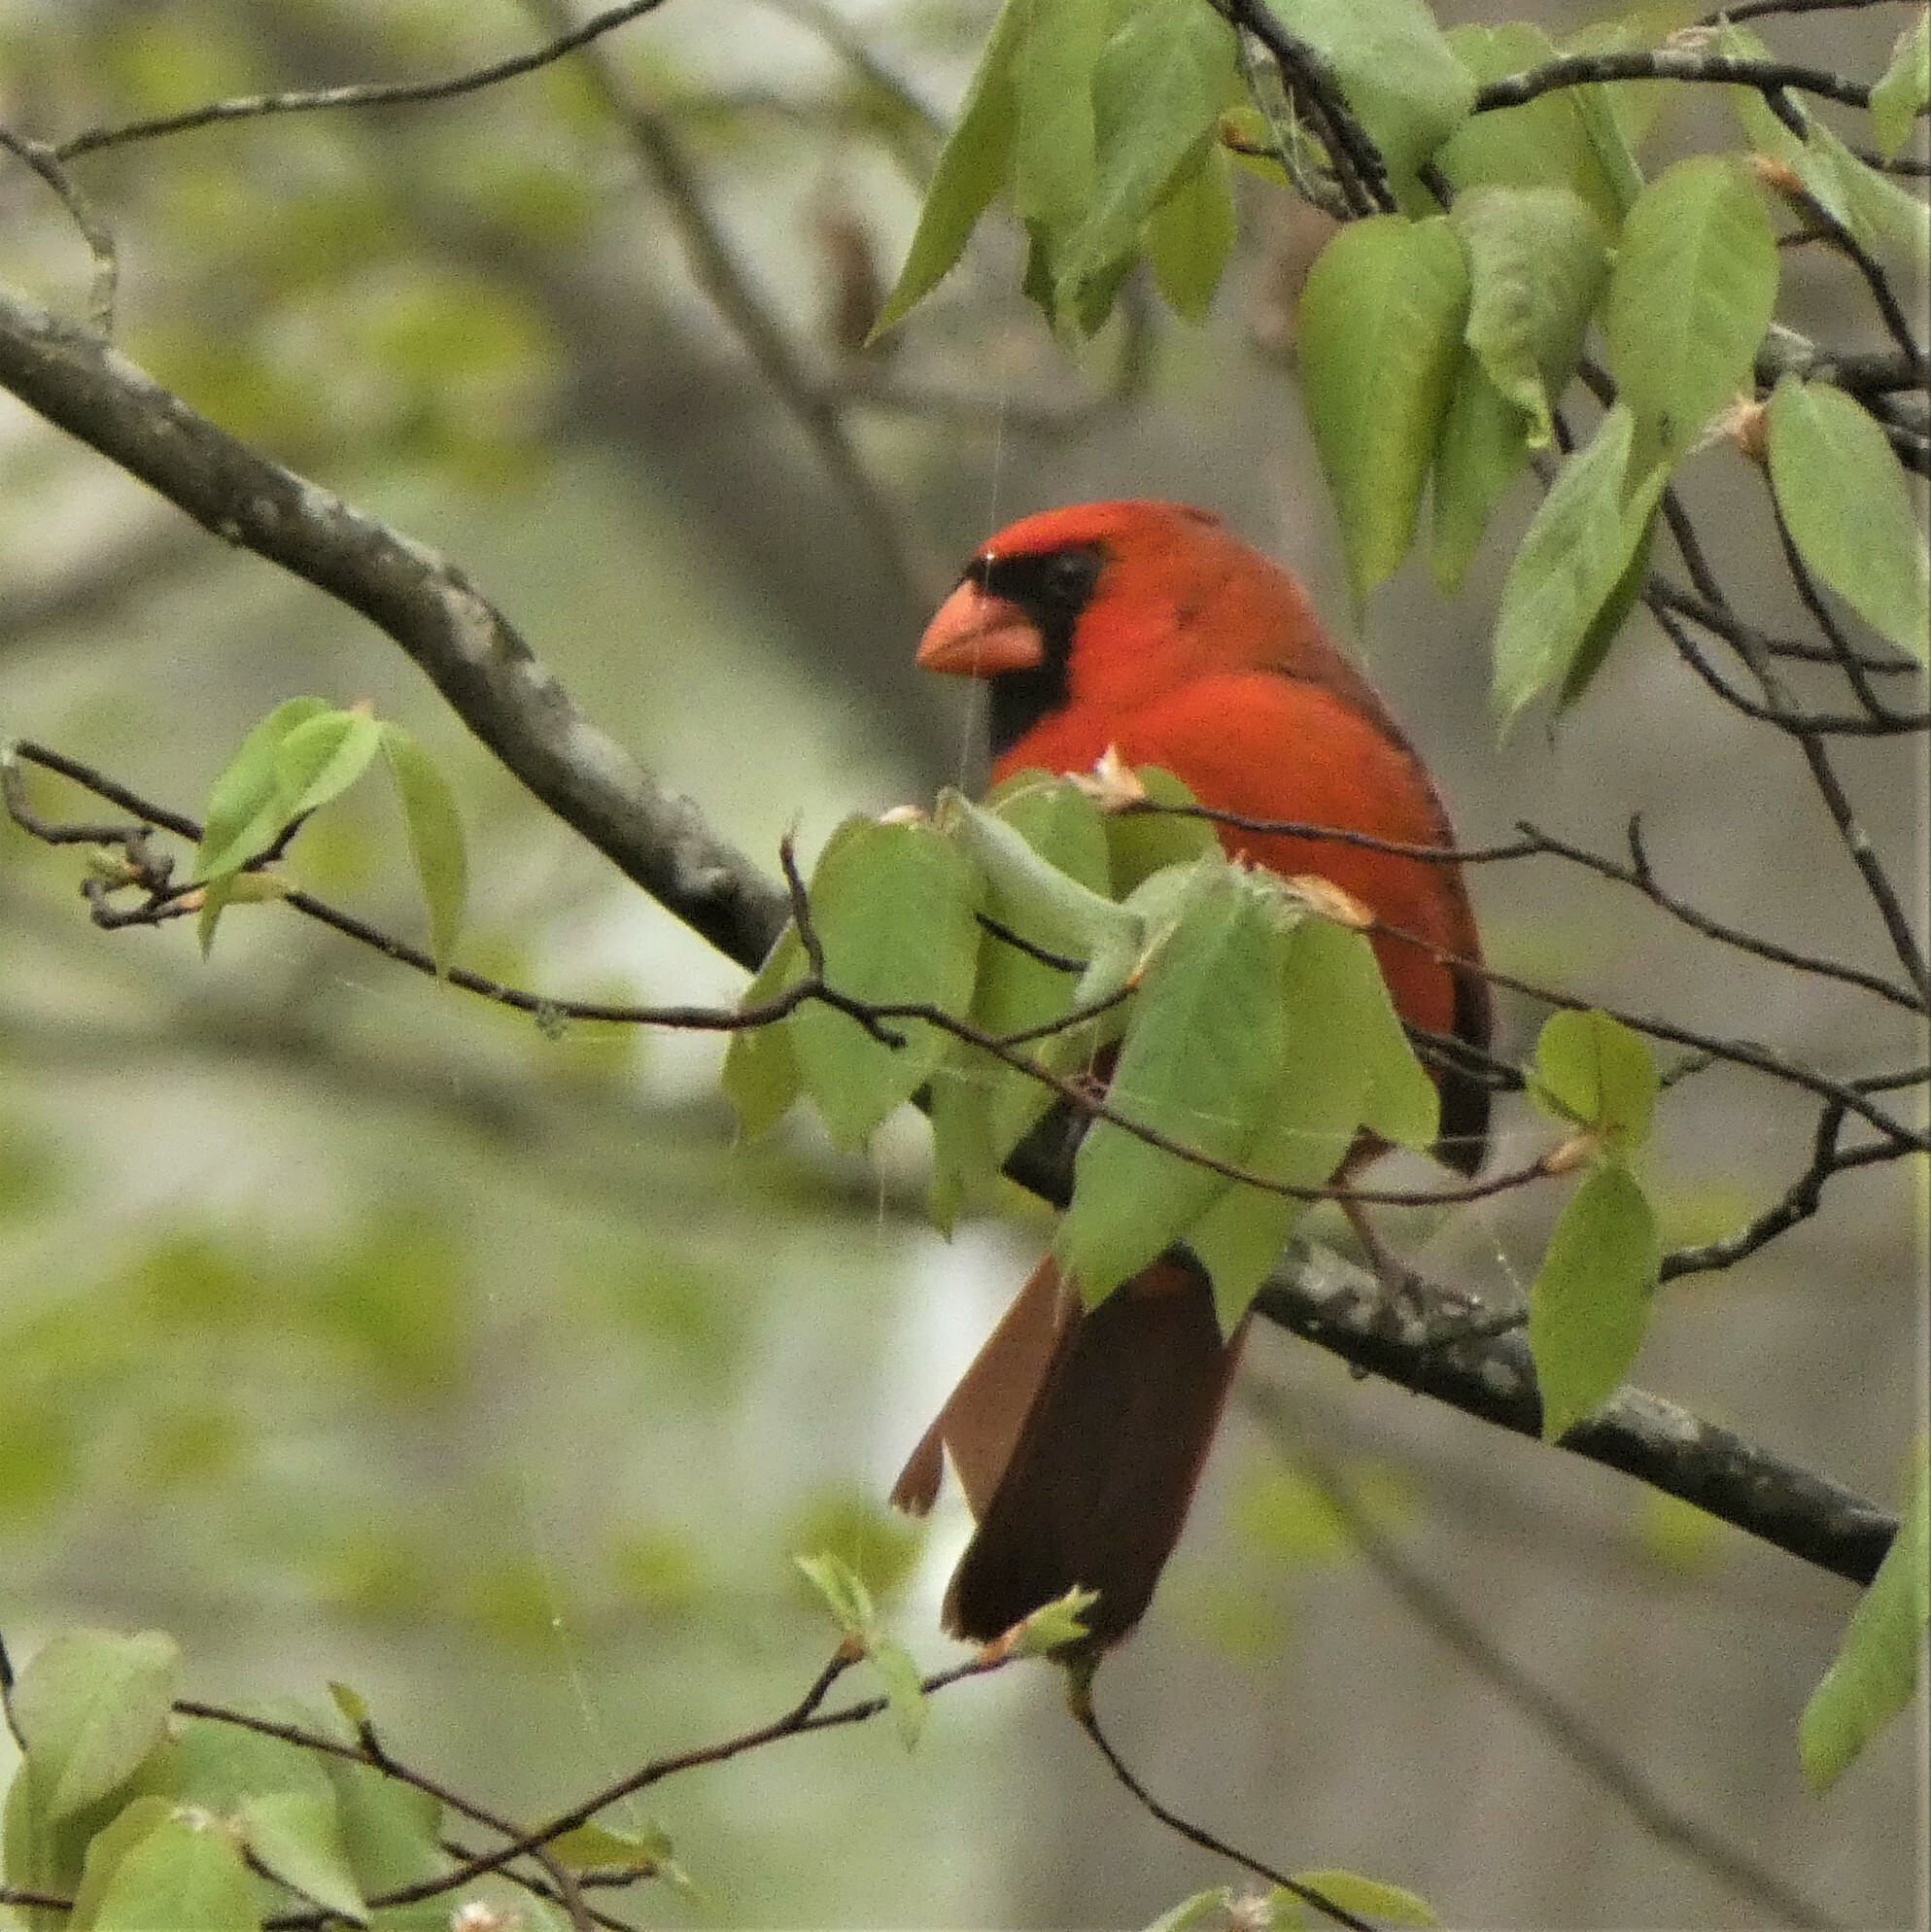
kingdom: Animalia
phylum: Chordata
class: Aves
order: Passeriformes
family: Cardinalidae
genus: Cardinalis
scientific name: Cardinalis cardinalis
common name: Northern cardinal
